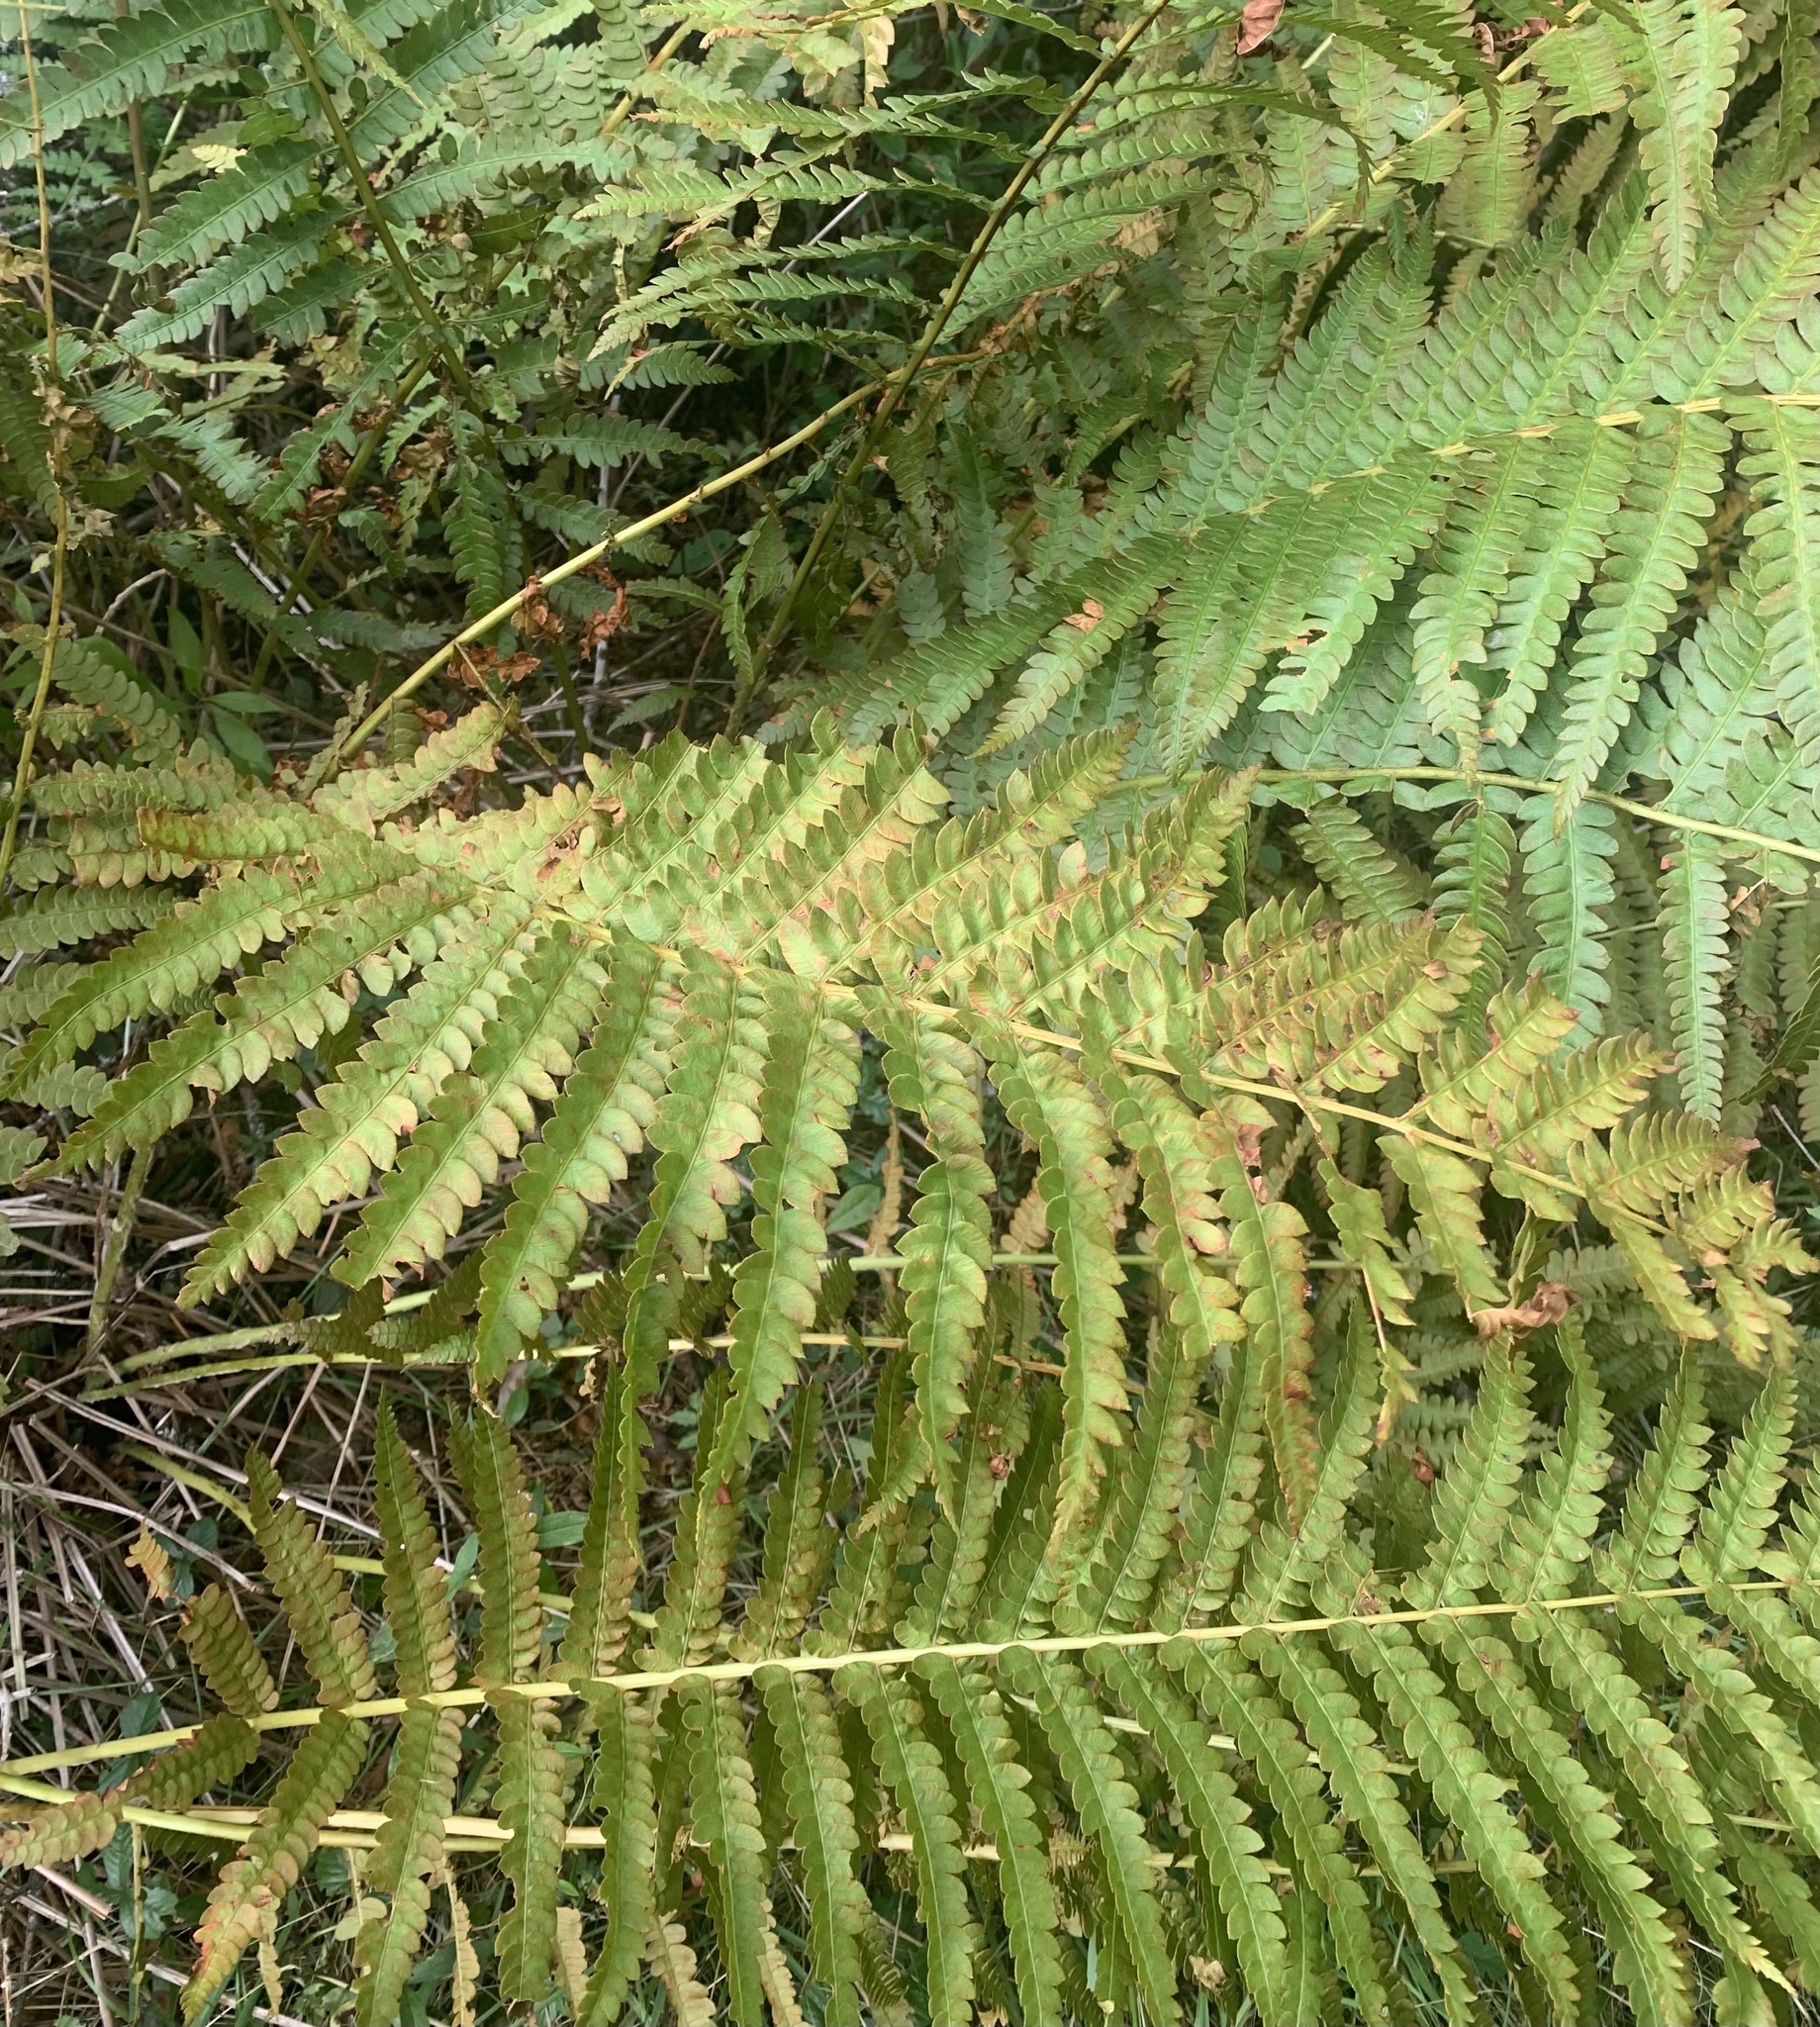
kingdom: Plantae
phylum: Tracheophyta
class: Polypodiopsida
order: Osmundales
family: Osmundaceae
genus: Osmundastrum
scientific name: Osmundastrum cinnamomeum
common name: Cinnamon fern
